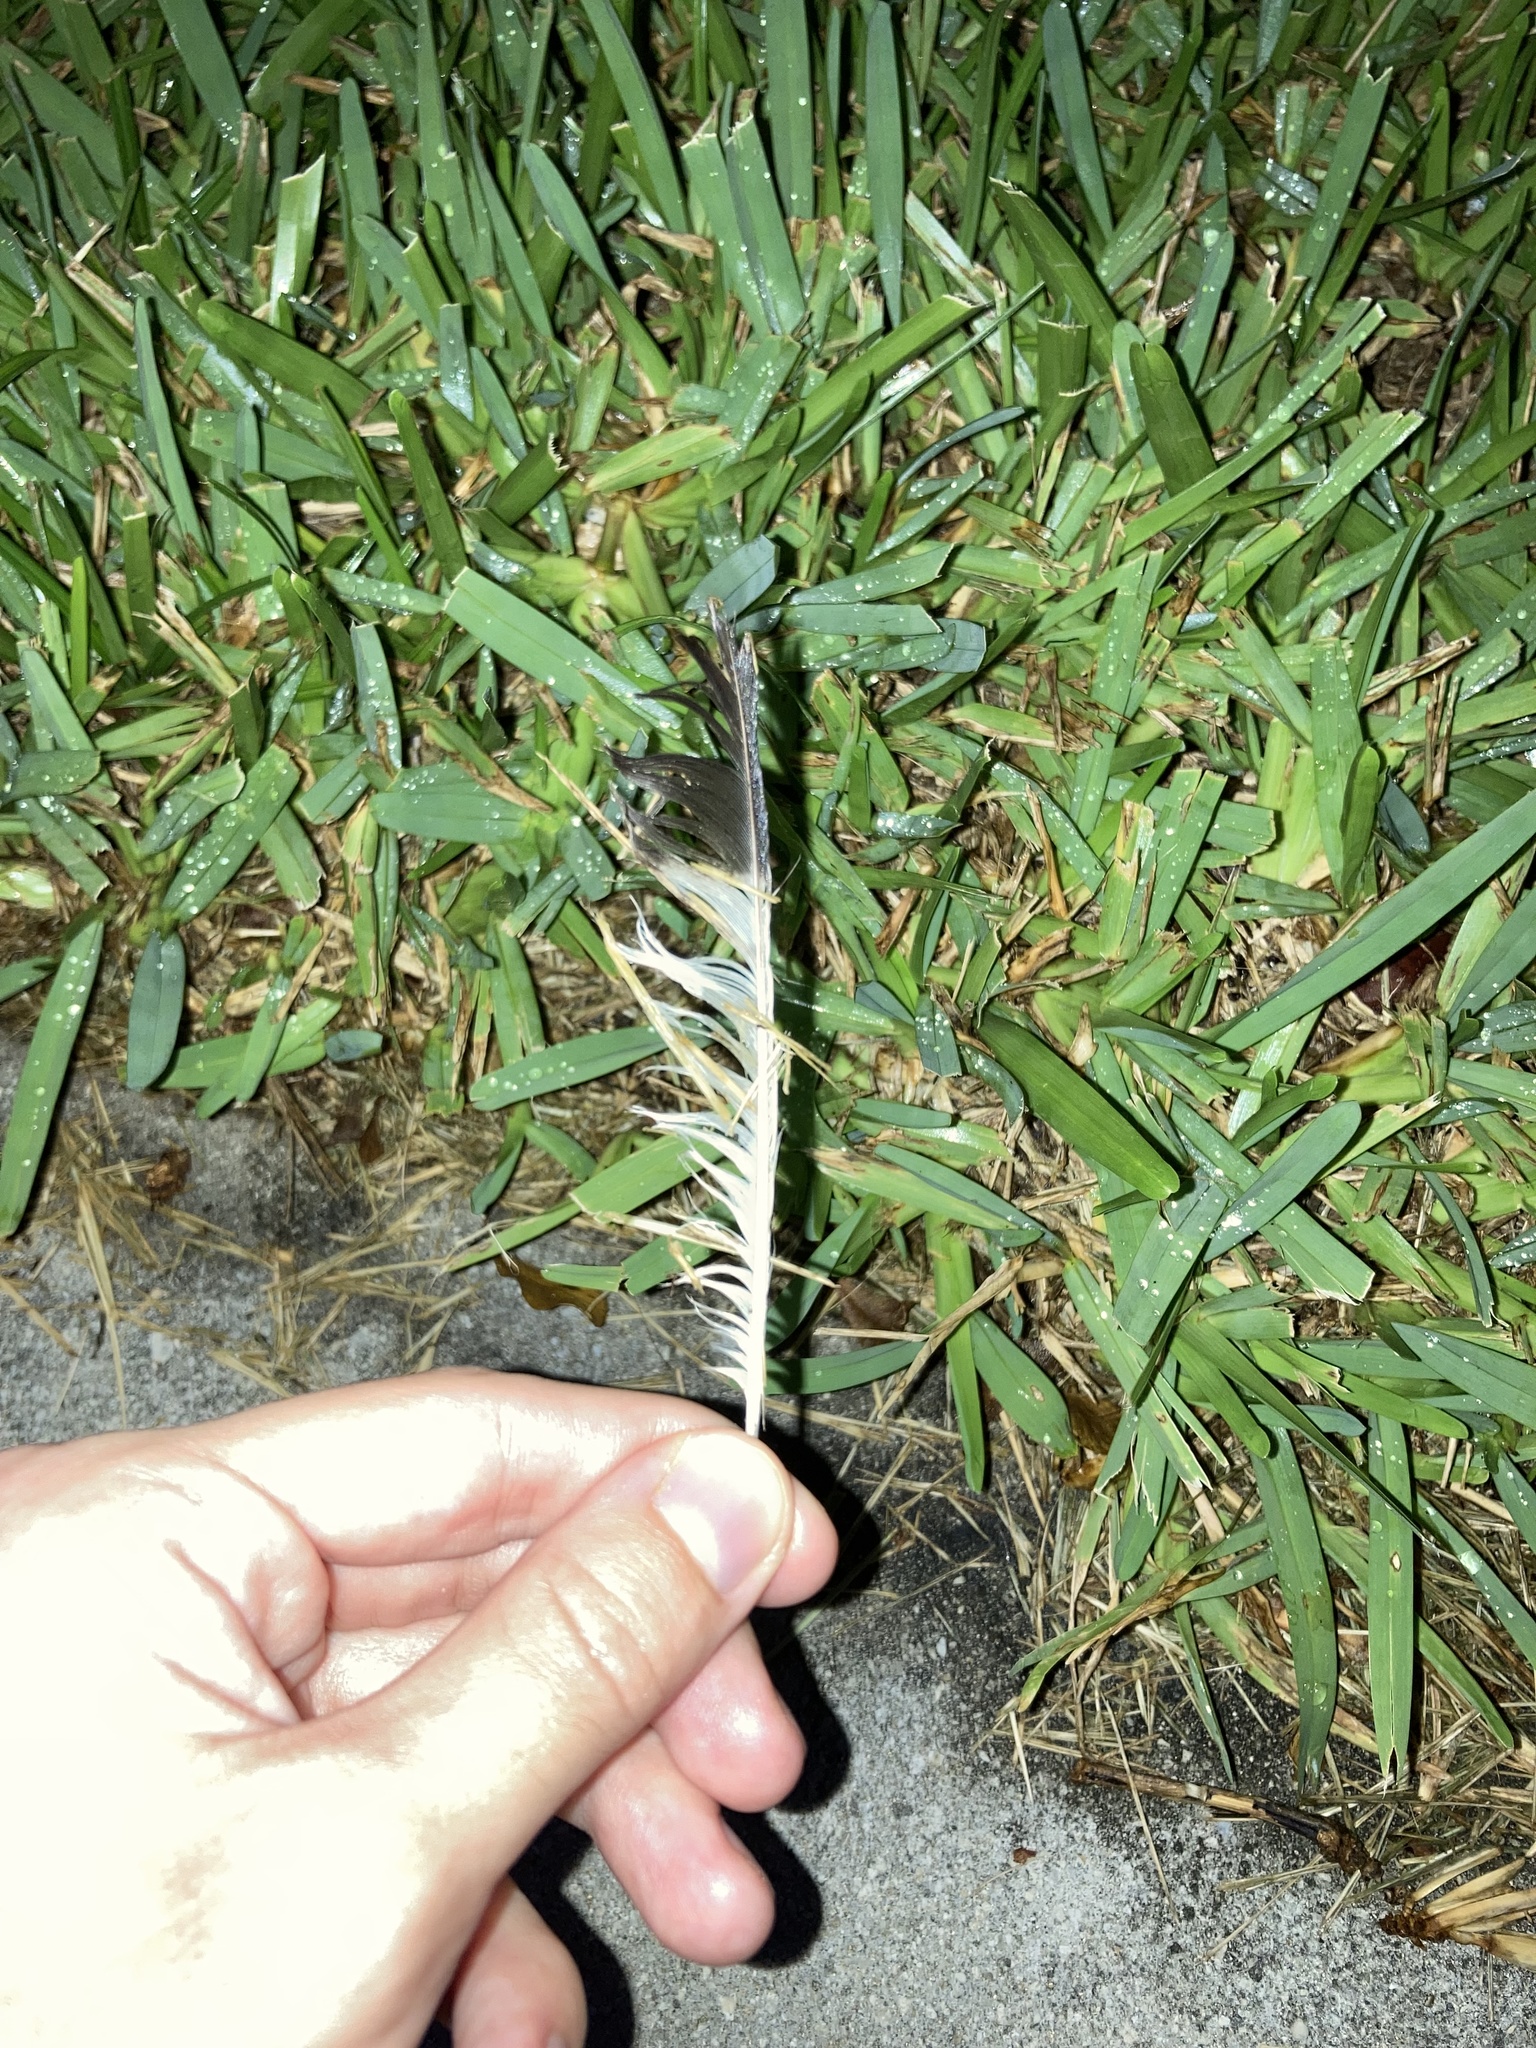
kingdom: Animalia
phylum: Chordata
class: Aves
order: Passeriformes
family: Mimidae
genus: Mimus
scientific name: Mimus polyglottos
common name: Northern mockingbird
